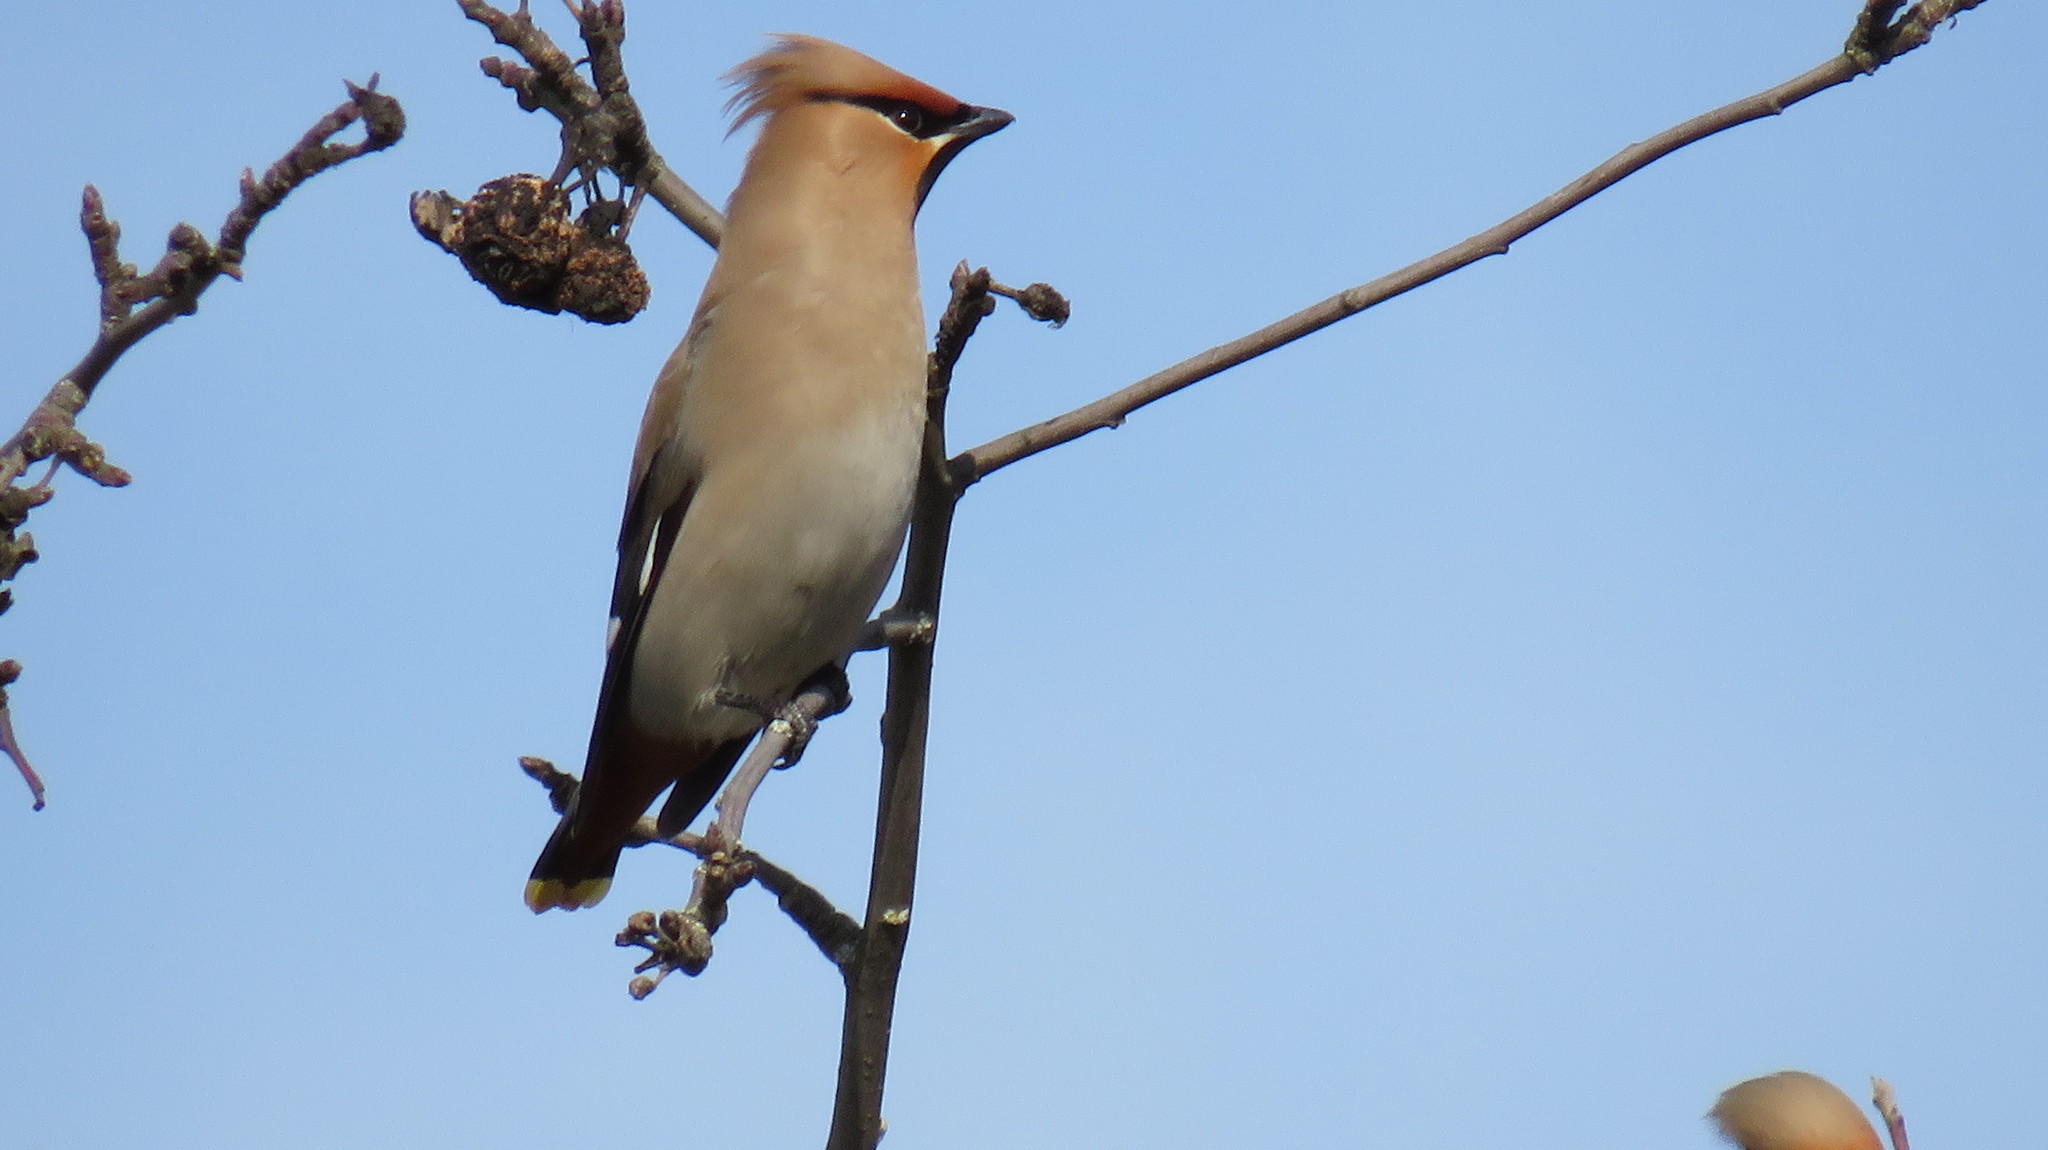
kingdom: Animalia
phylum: Chordata
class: Aves
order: Passeriformes
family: Bombycillidae
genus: Bombycilla
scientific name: Bombycilla garrulus
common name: Bohemian waxwing
